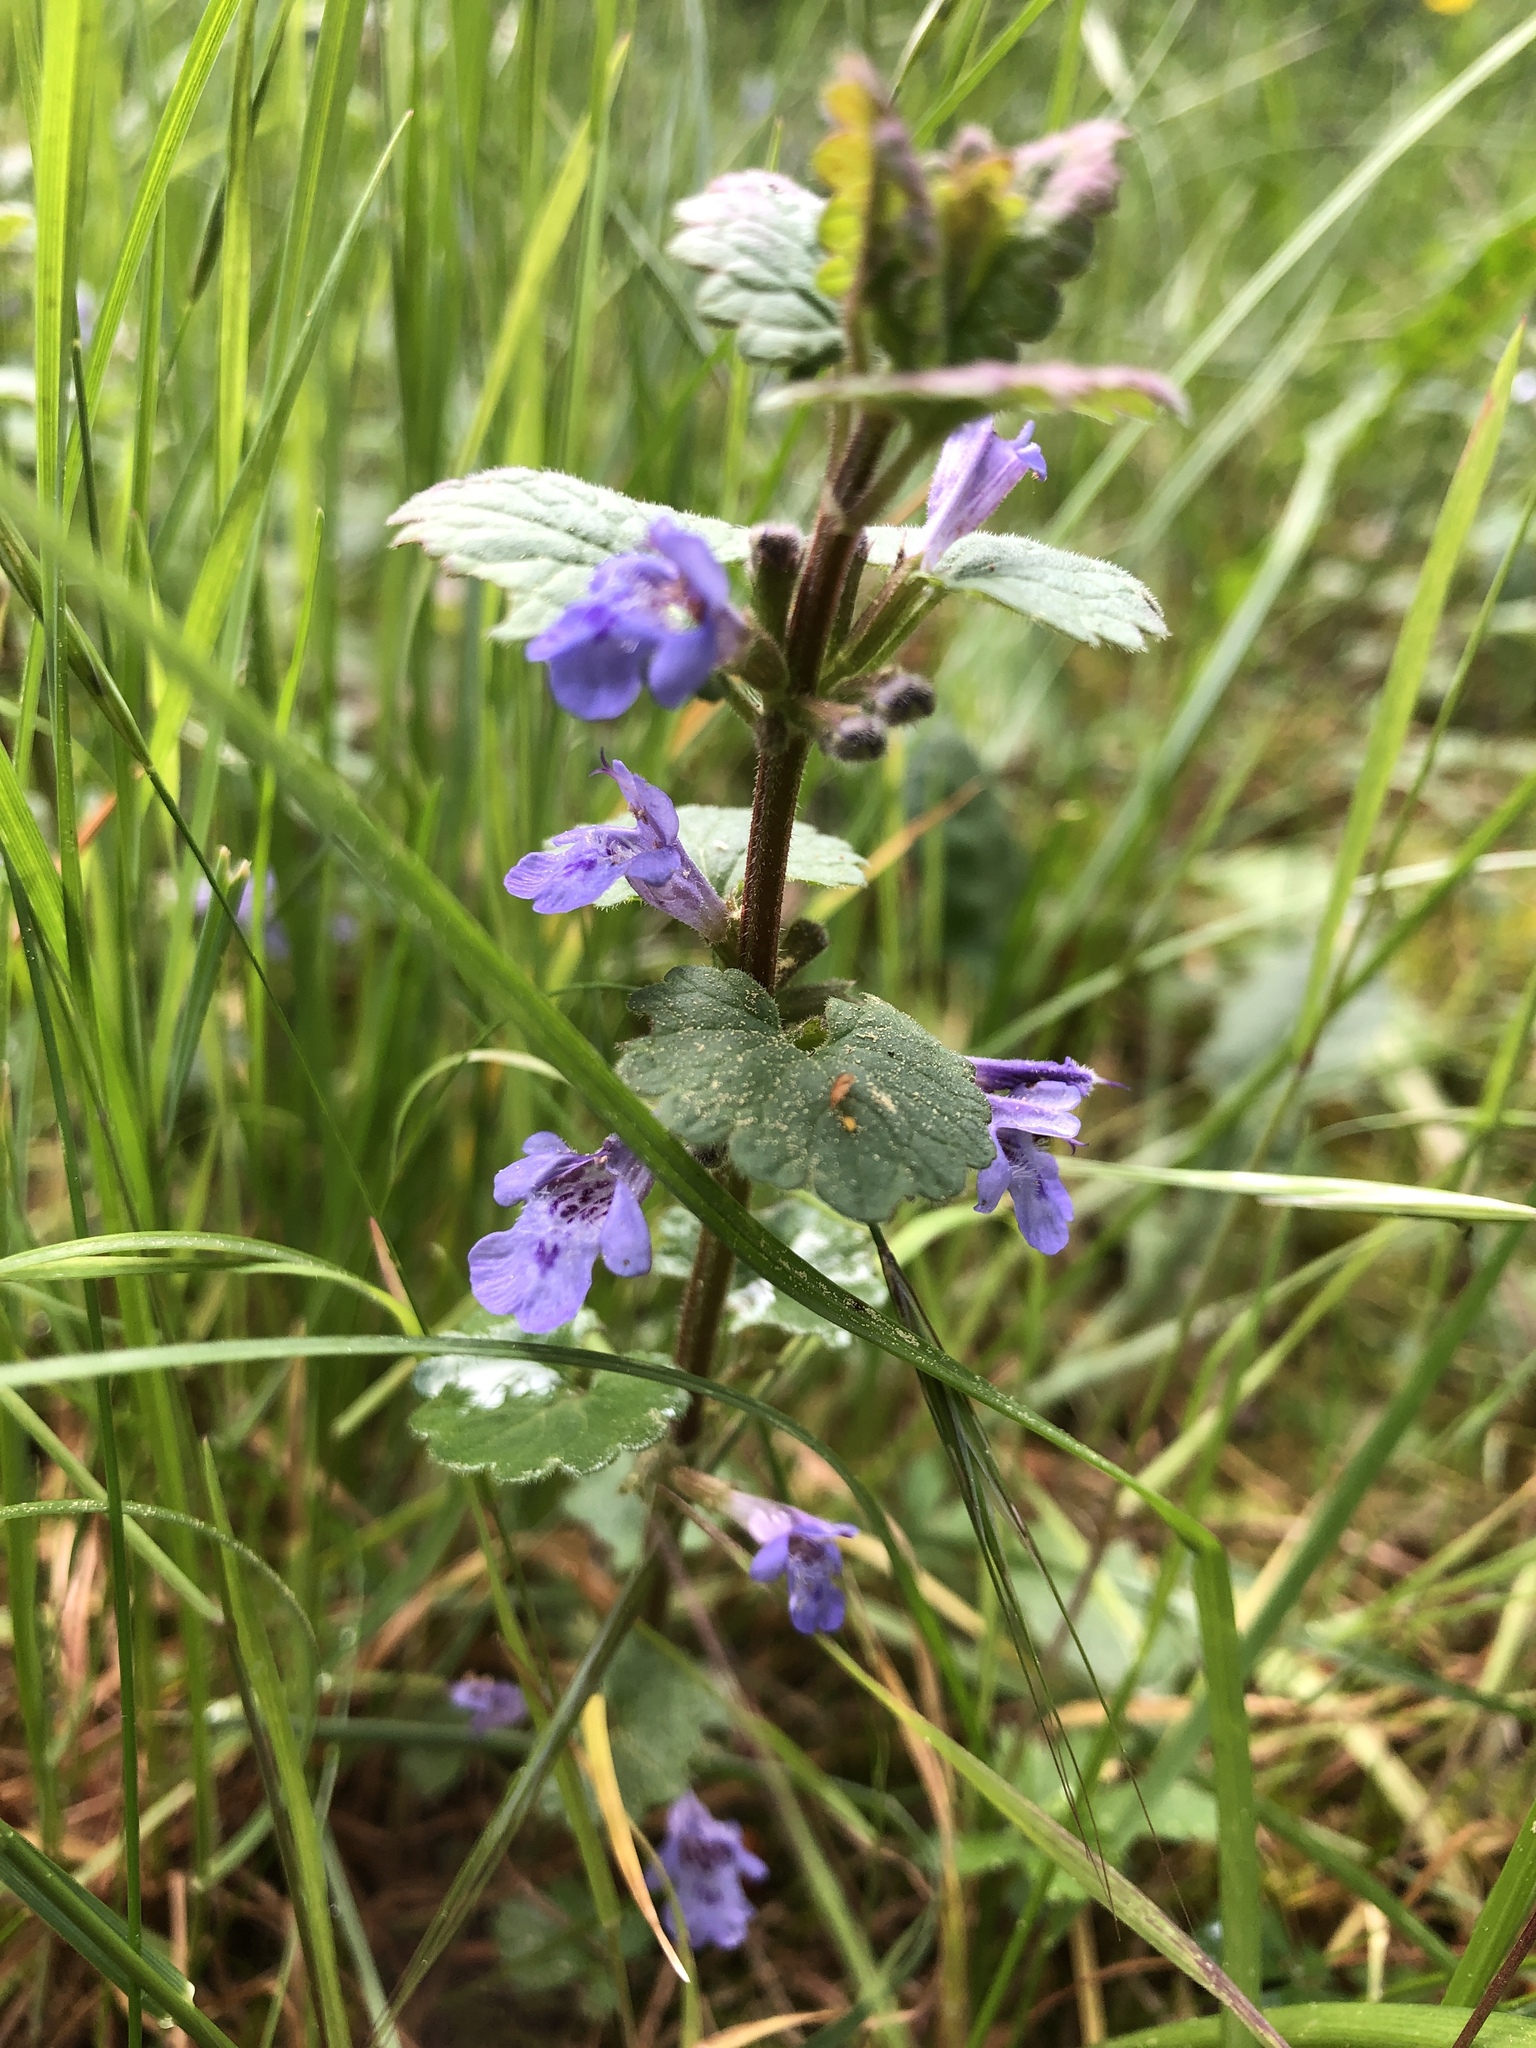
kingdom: Plantae
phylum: Tracheophyta
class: Magnoliopsida
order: Lamiales
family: Lamiaceae
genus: Glechoma
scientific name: Glechoma hederacea
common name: Ground ivy
